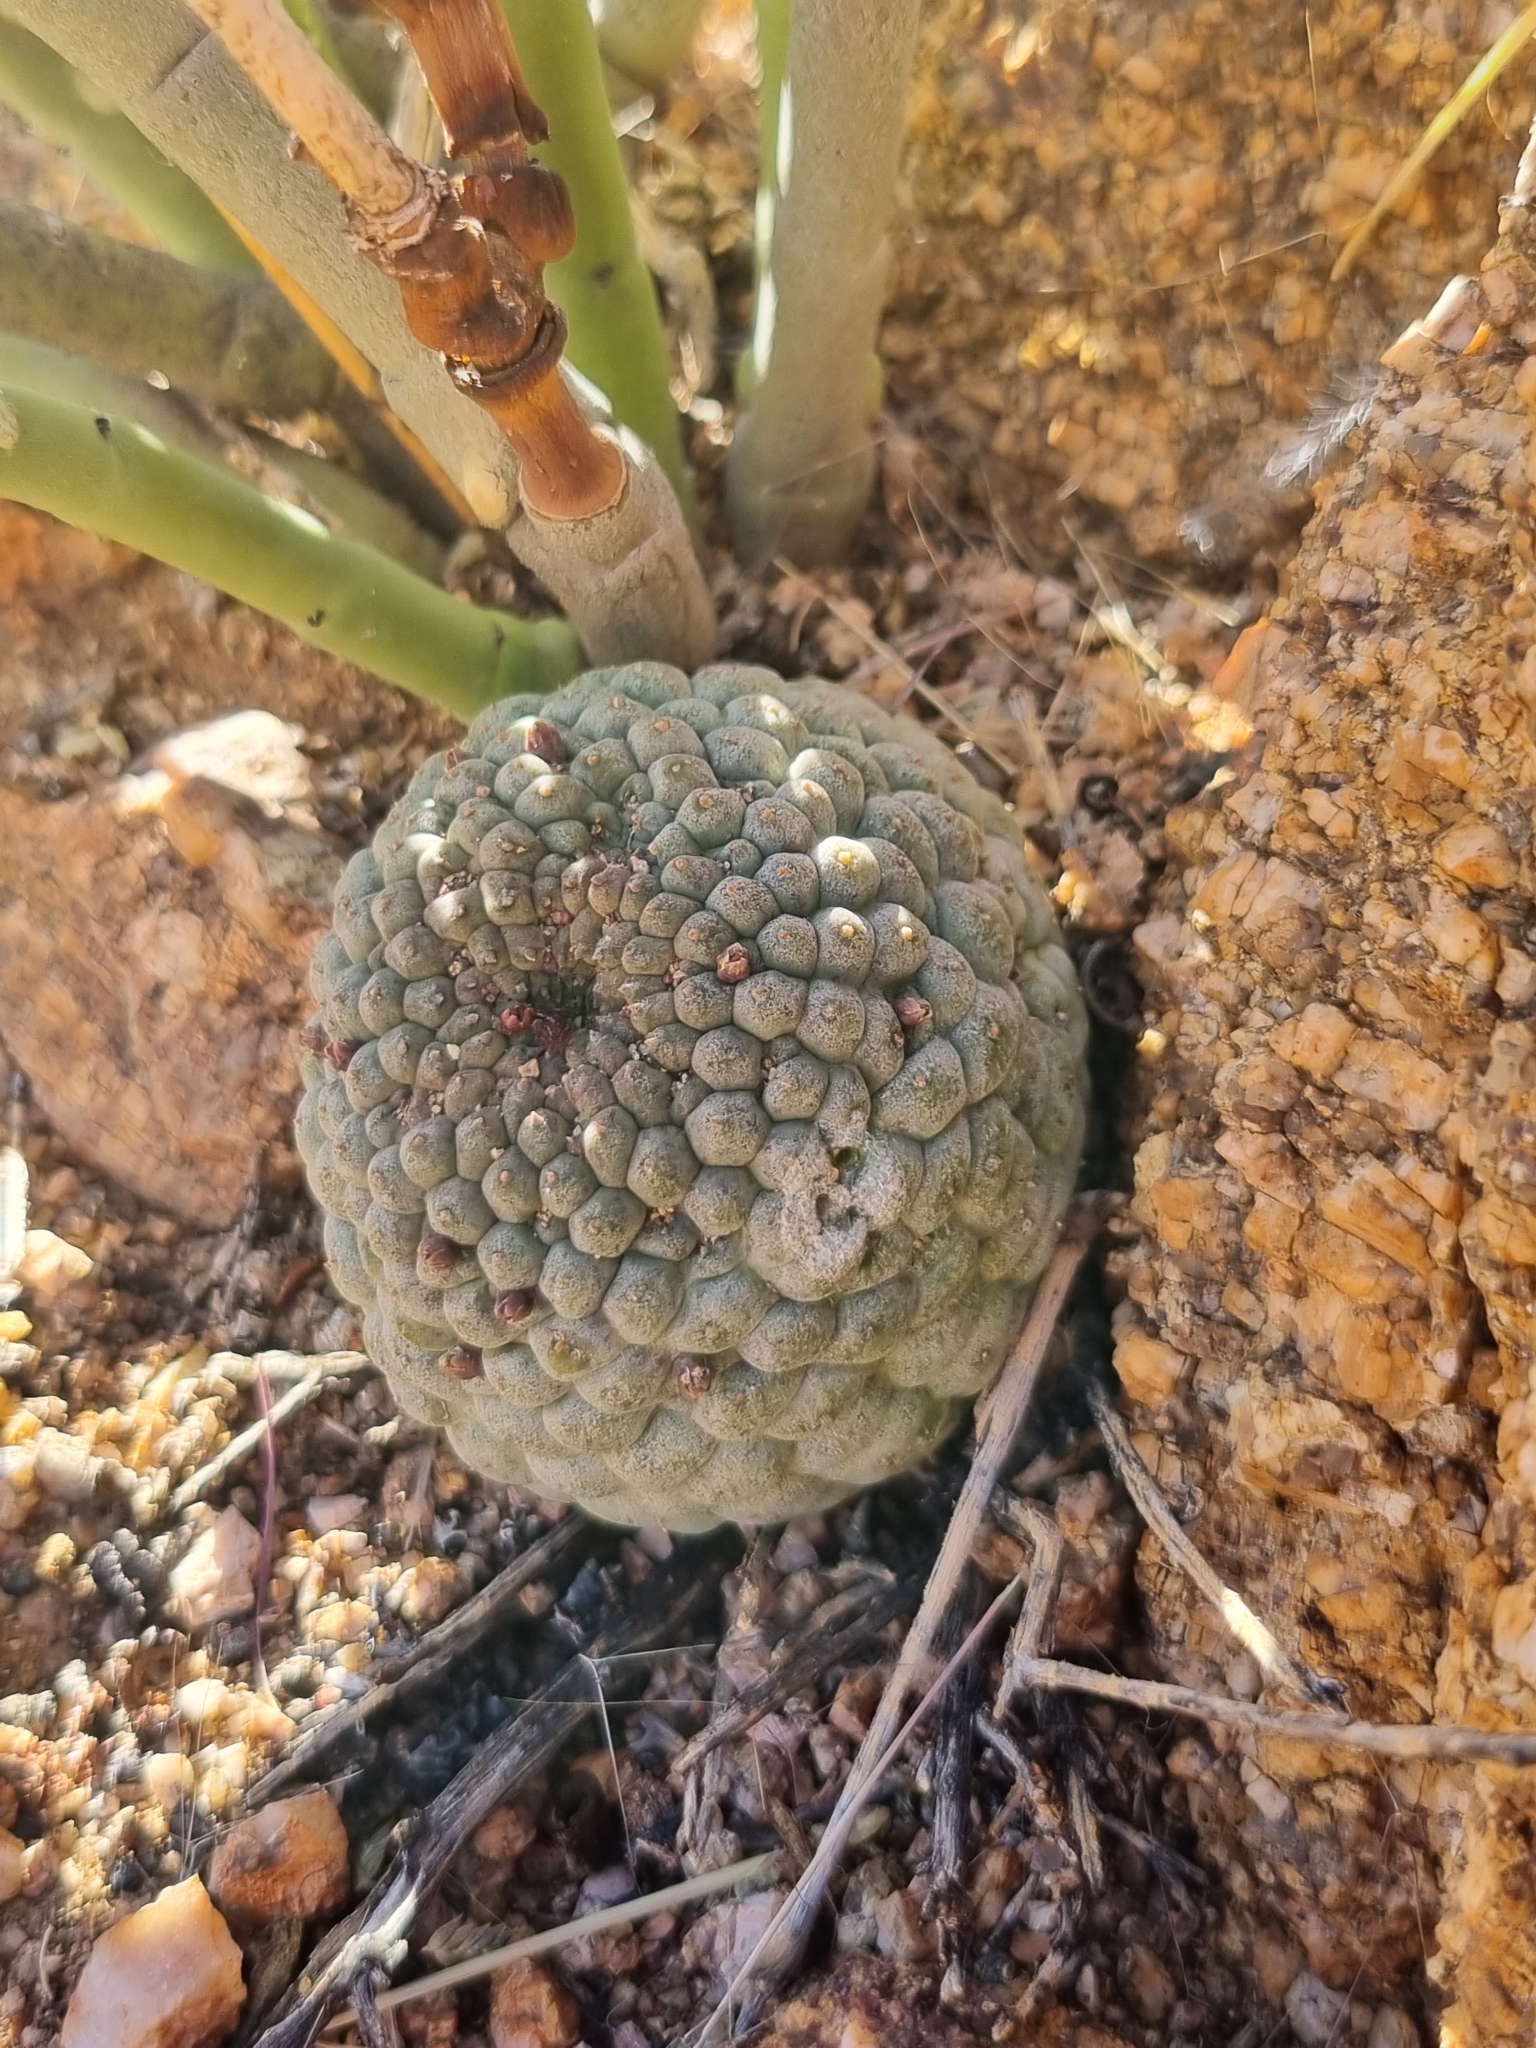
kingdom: Plantae
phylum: Tracheophyta
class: Magnoliopsida
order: Gentianales
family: Apocynaceae
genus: Ceropegia
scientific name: Ceropegia marlothii
